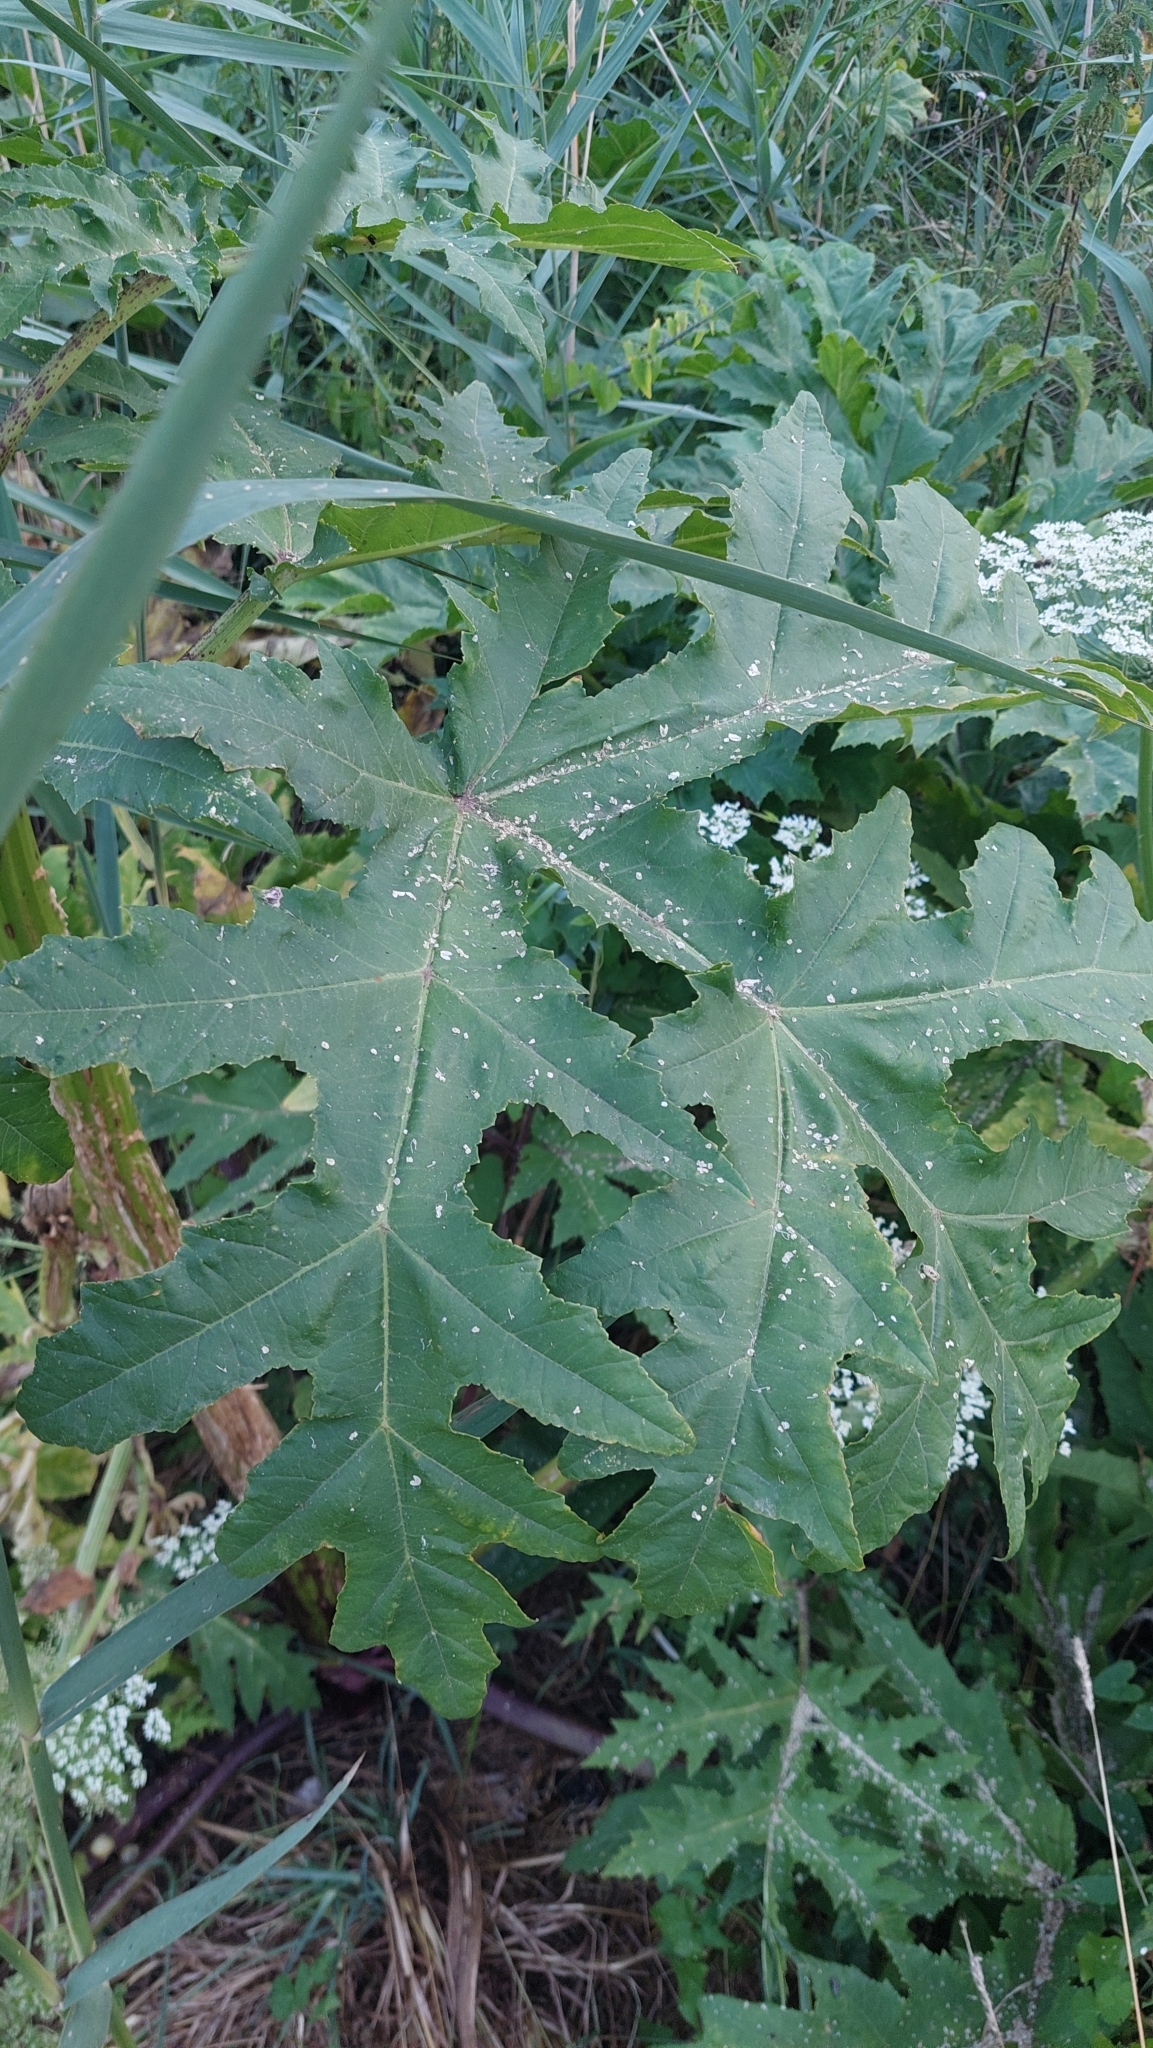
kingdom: Plantae
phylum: Tracheophyta
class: Magnoliopsida
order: Apiales
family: Apiaceae
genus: Heracleum
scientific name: Heracleum mantegazzianum
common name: Giant hogweed
